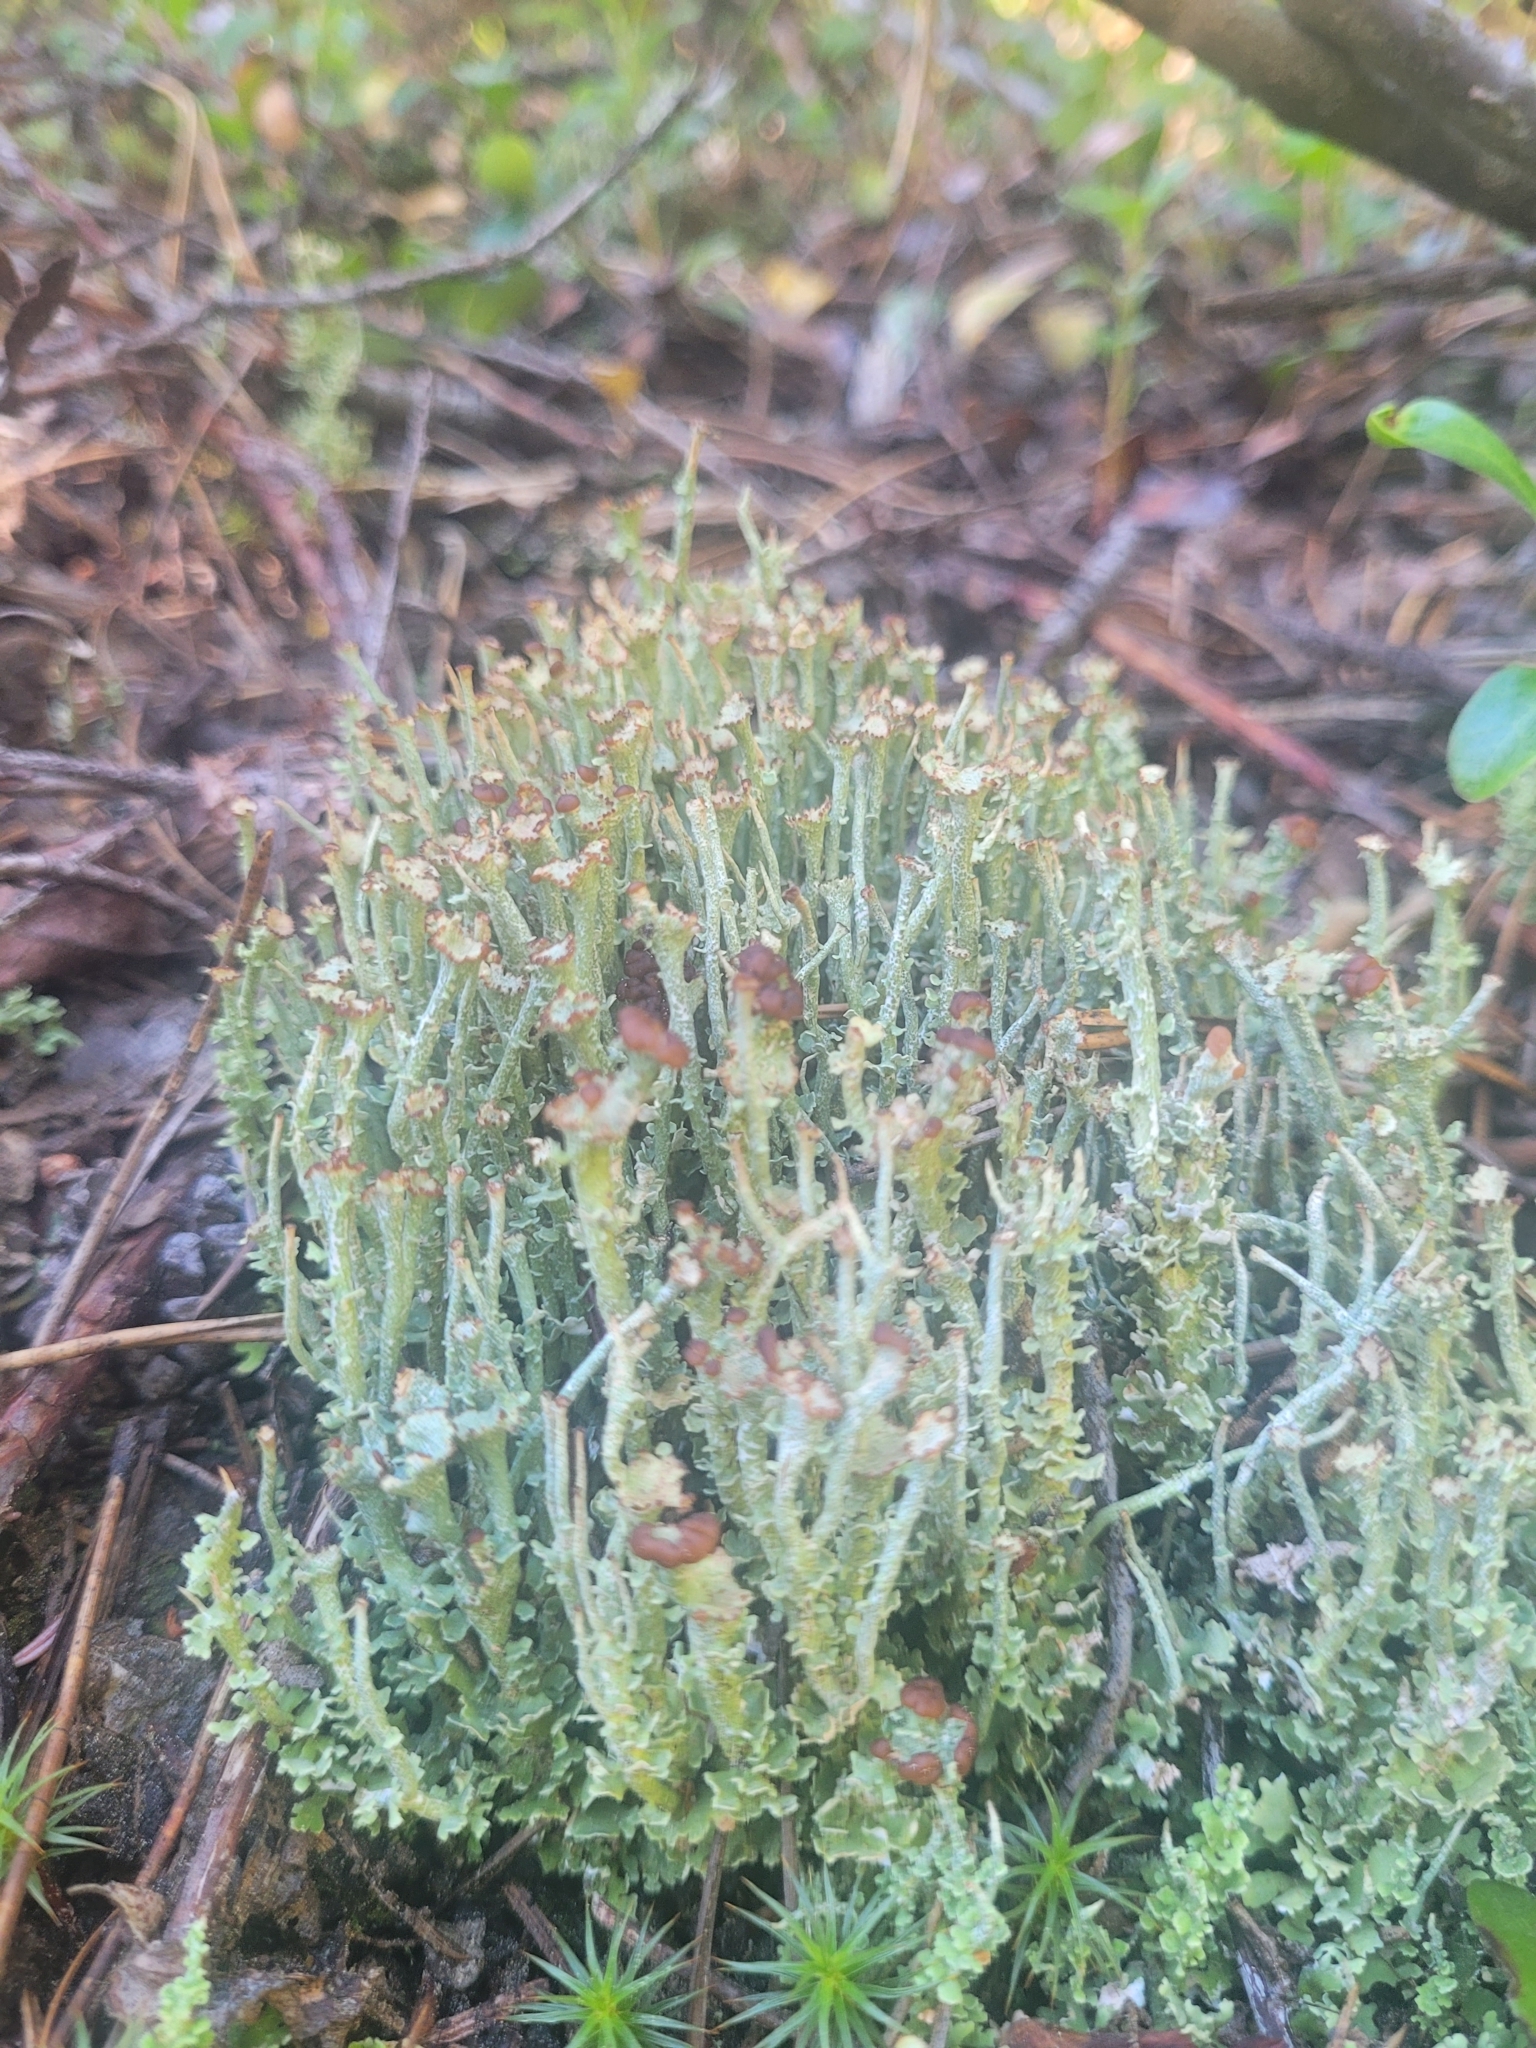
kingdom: Fungi
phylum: Ascomycota
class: Lecanoromycetes
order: Lecanorales
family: Cladoniaceae
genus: Cladonia
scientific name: Cladonia chlorophaea
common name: Mealy pixie cup
